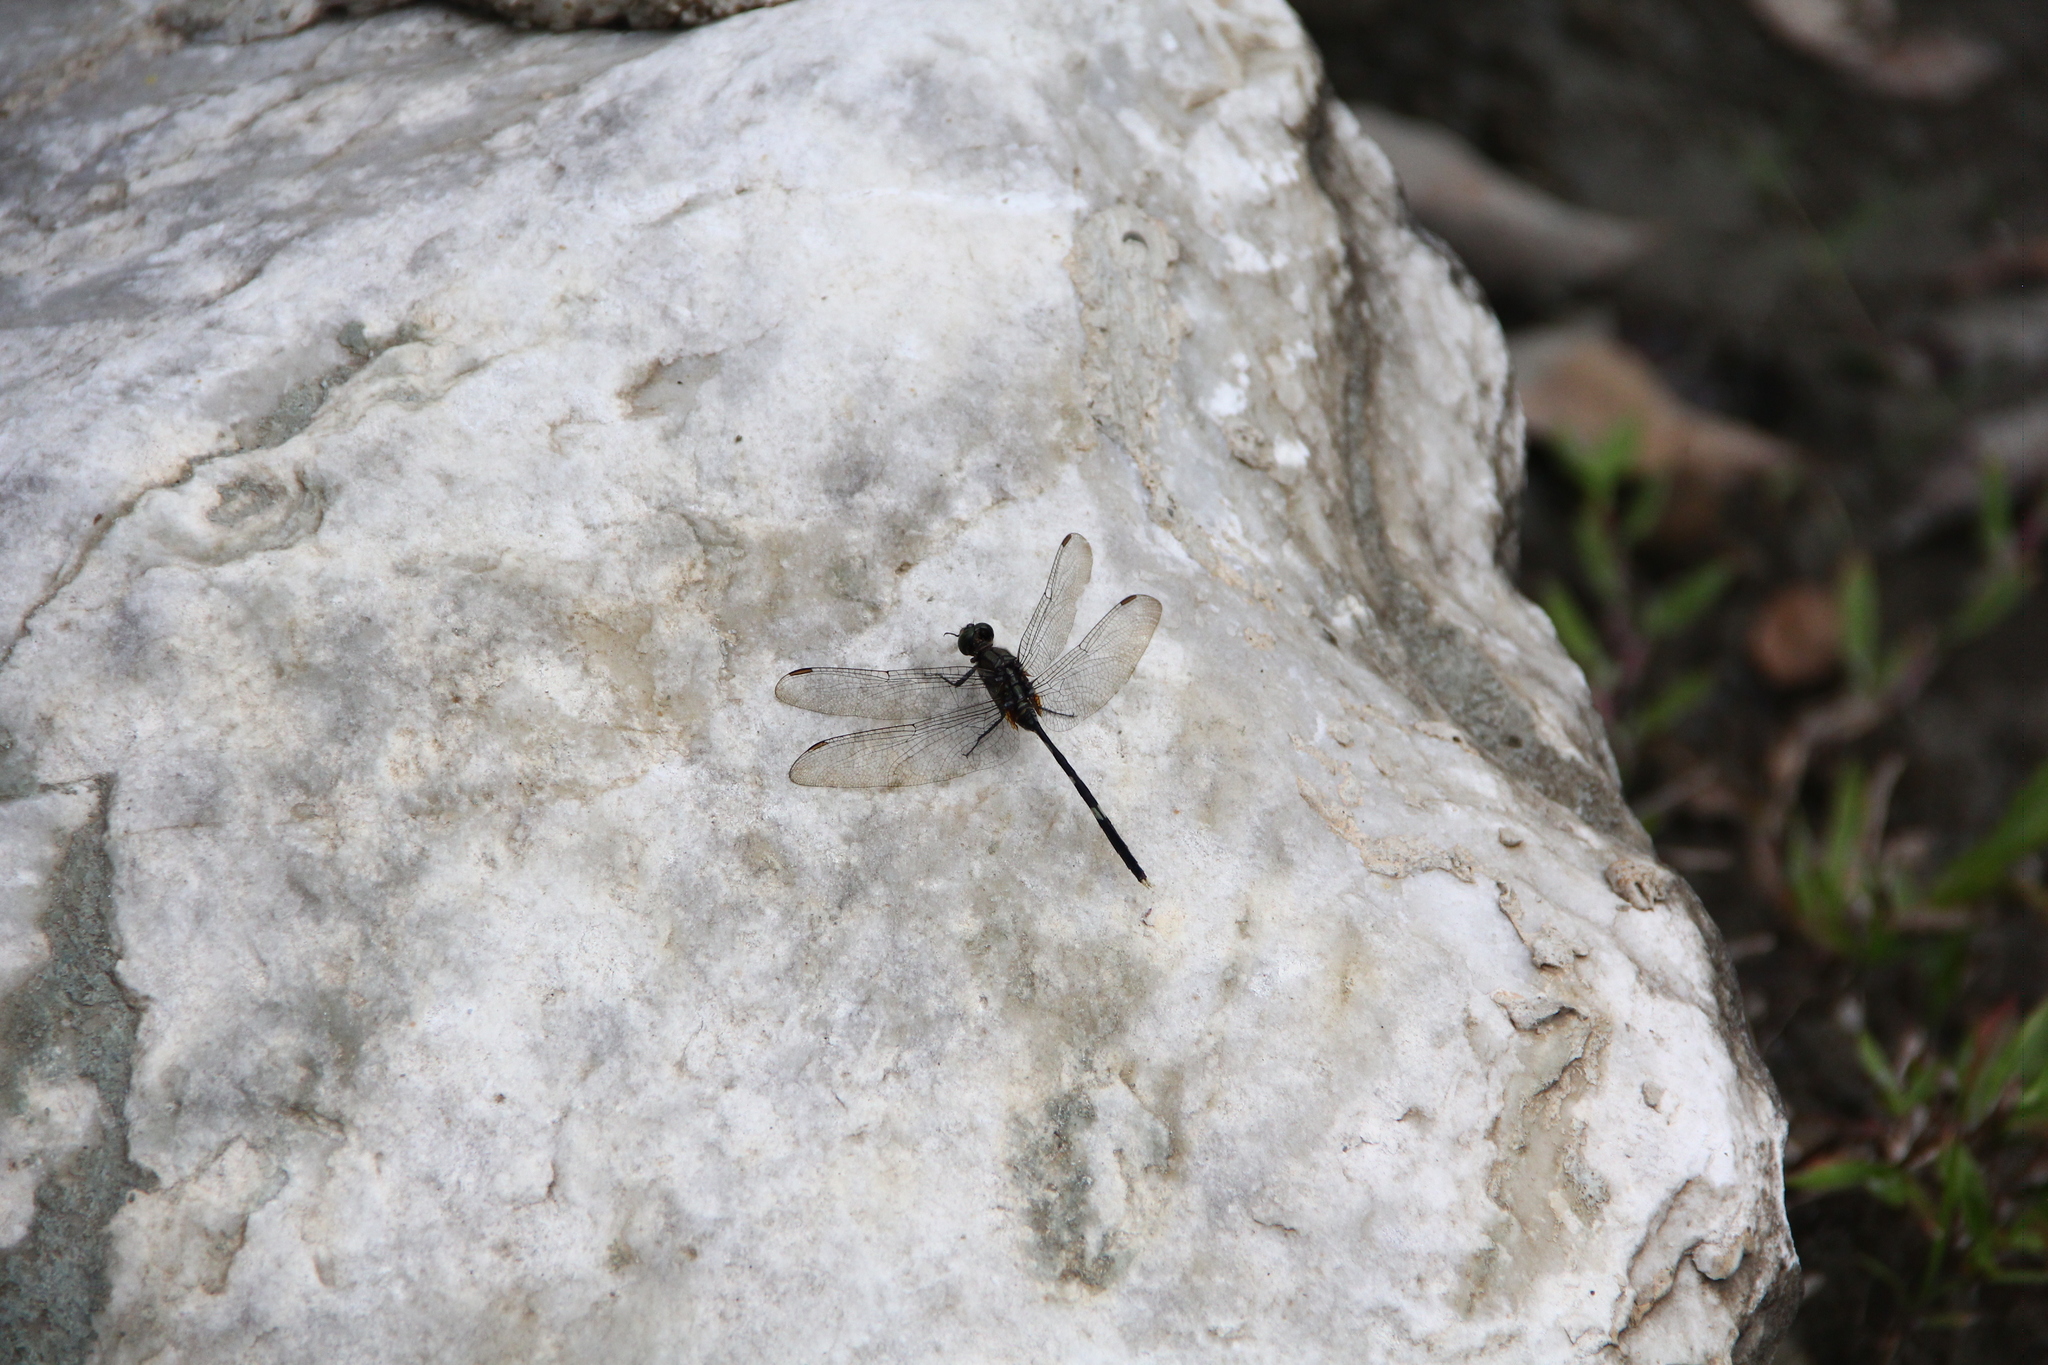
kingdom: Animalia
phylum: Arthropoda
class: Insecta
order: Odonata
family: Libellulidae
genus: Orthetrum
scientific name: Orthetrum sabina
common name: Slender skimmer
